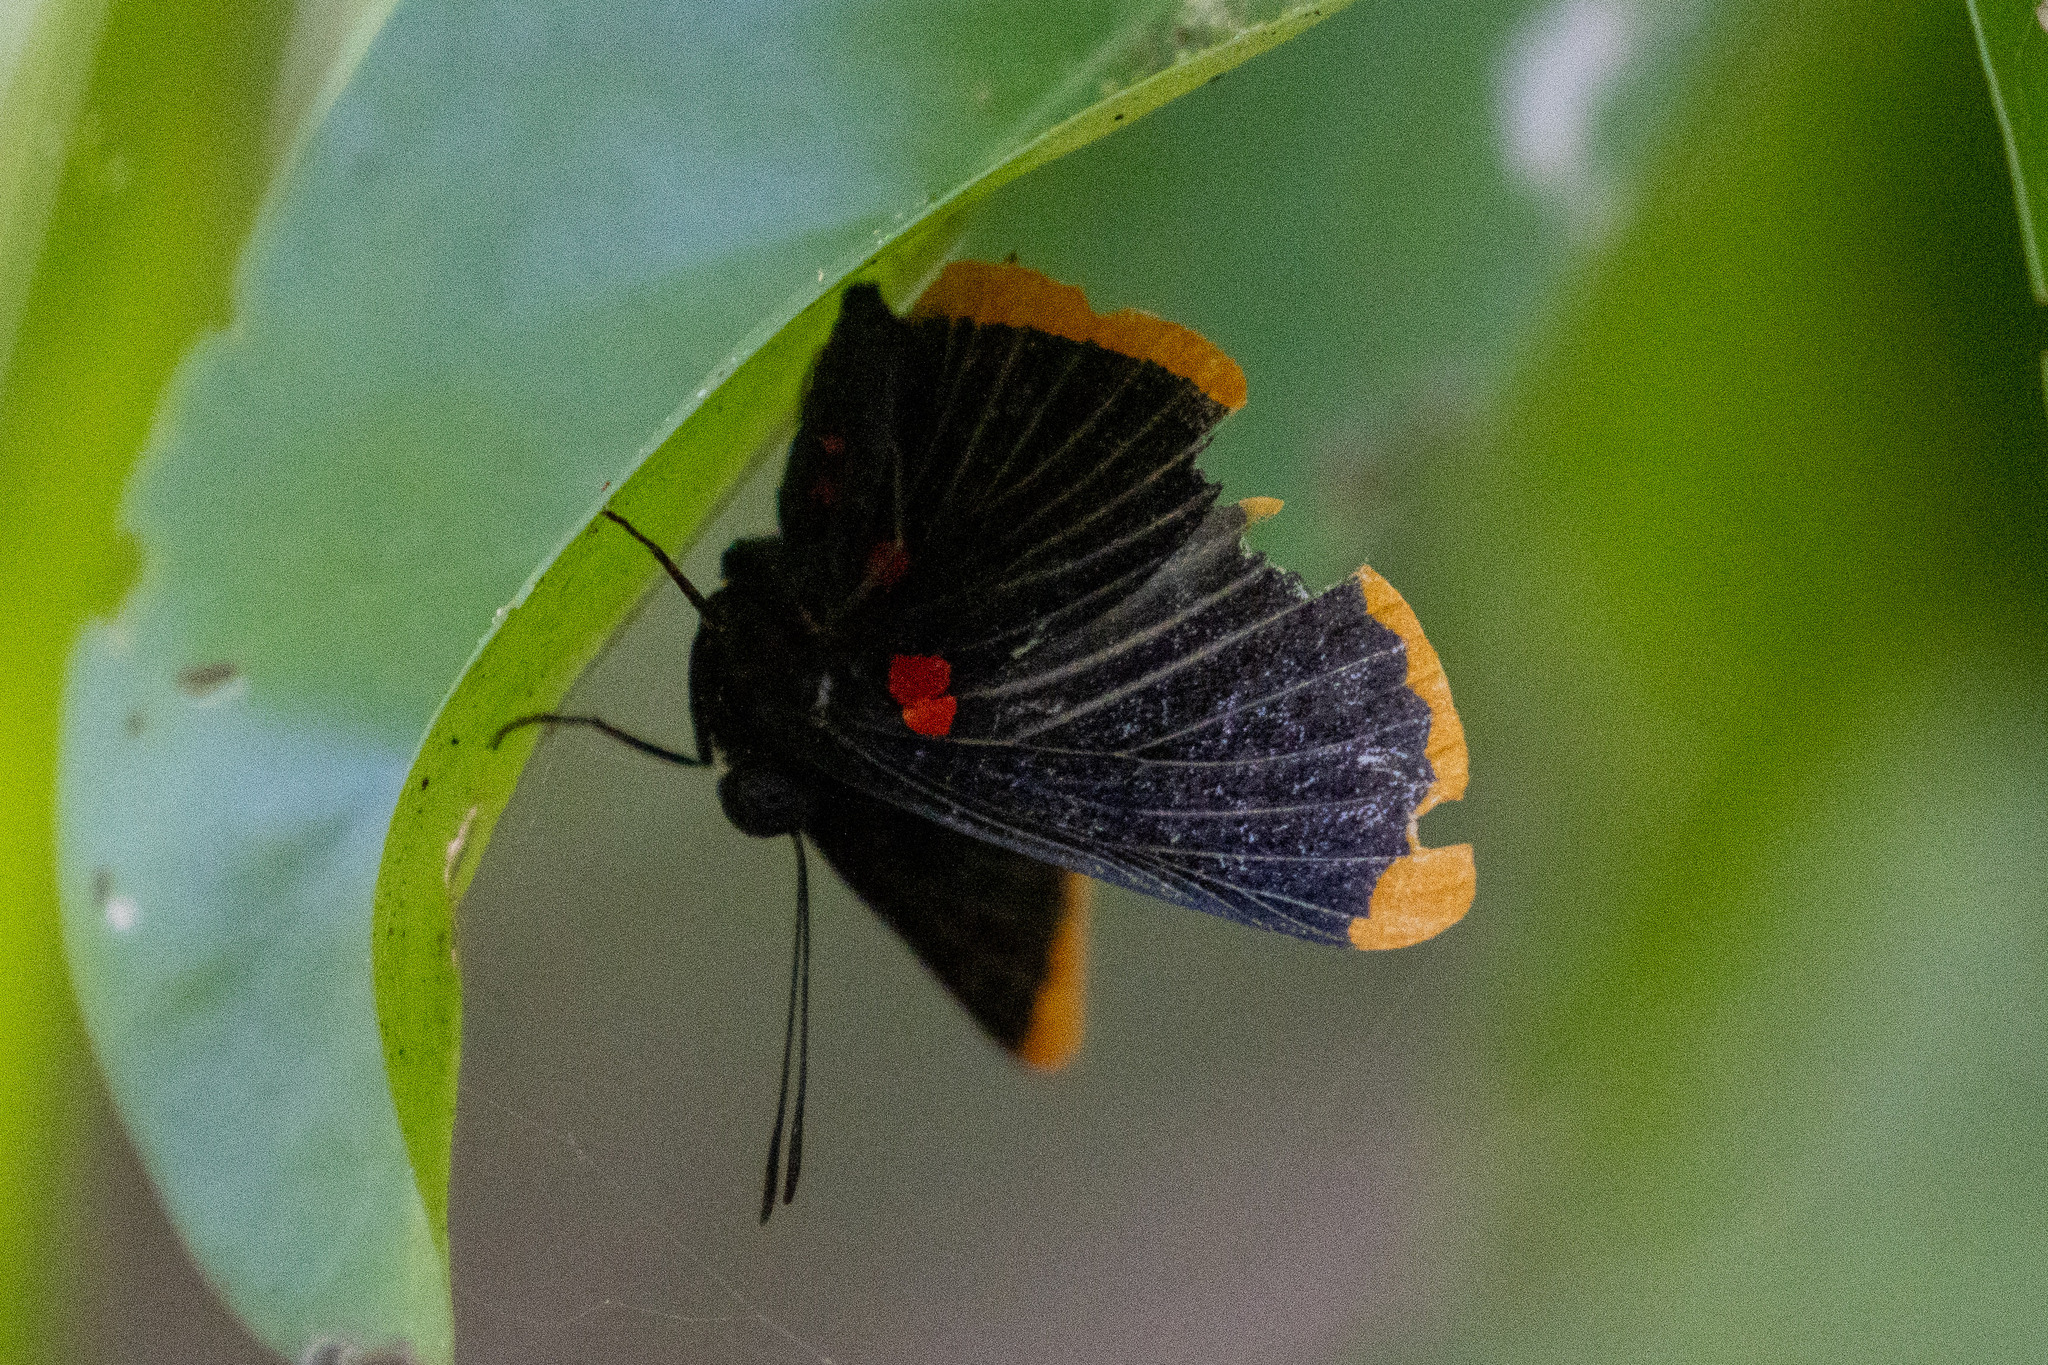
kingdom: Animalia
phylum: Arthropoda
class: Insecta
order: Lepidoptera
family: Lycaenidae
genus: Melanis
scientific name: Melanis smithiae
